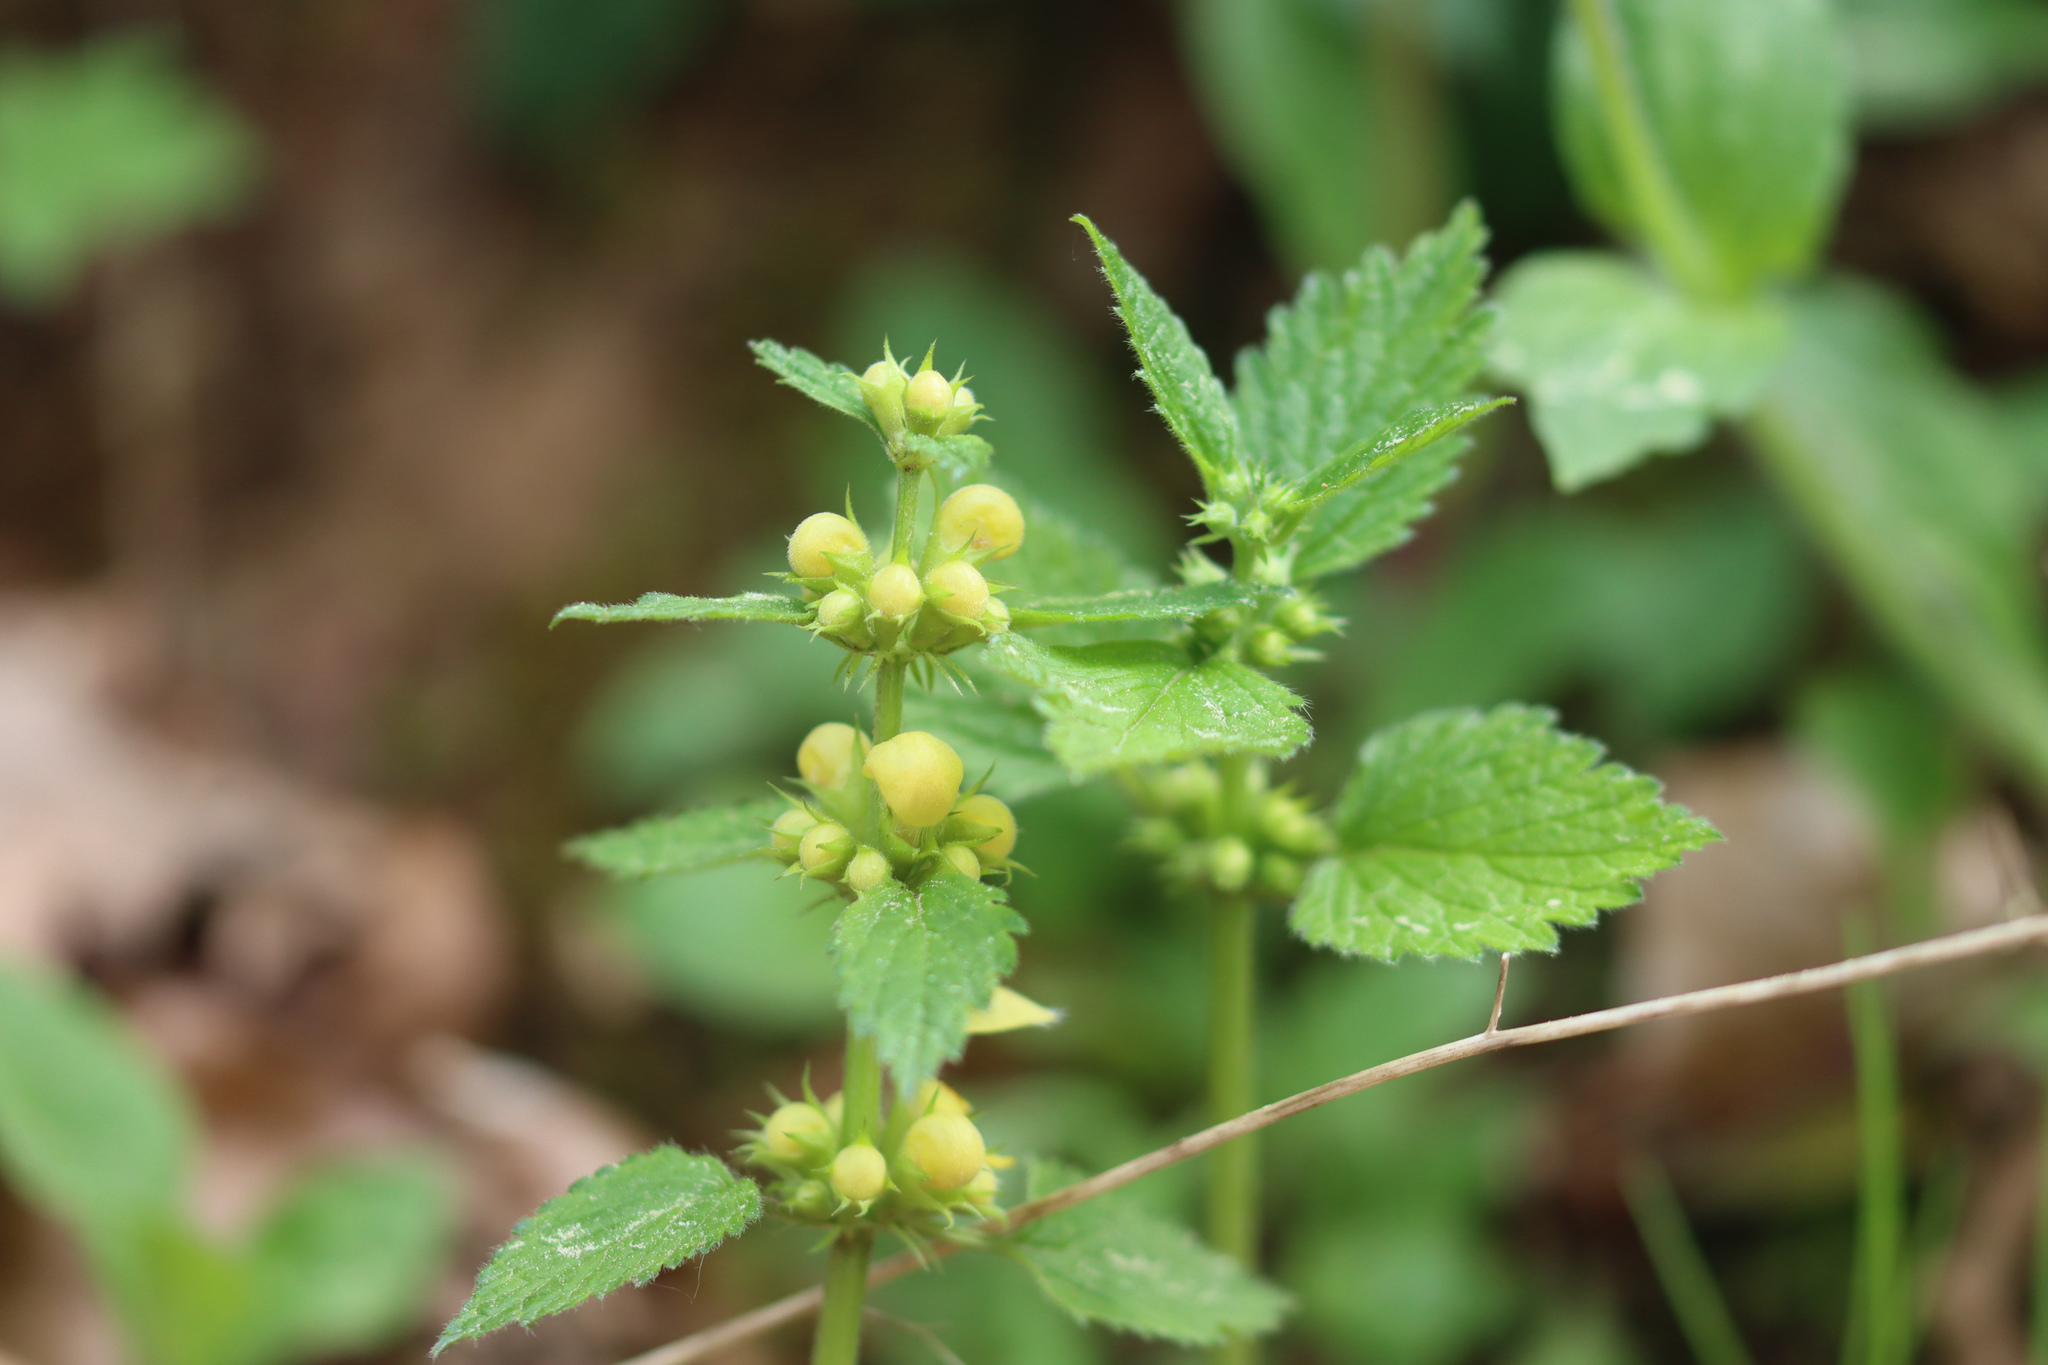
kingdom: Plantae
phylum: Tracheophyta
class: Magnoliopsida
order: Lamiales
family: Lamiaceae
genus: Lamium
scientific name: Lamium galeobdolon
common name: Yellow archangel
